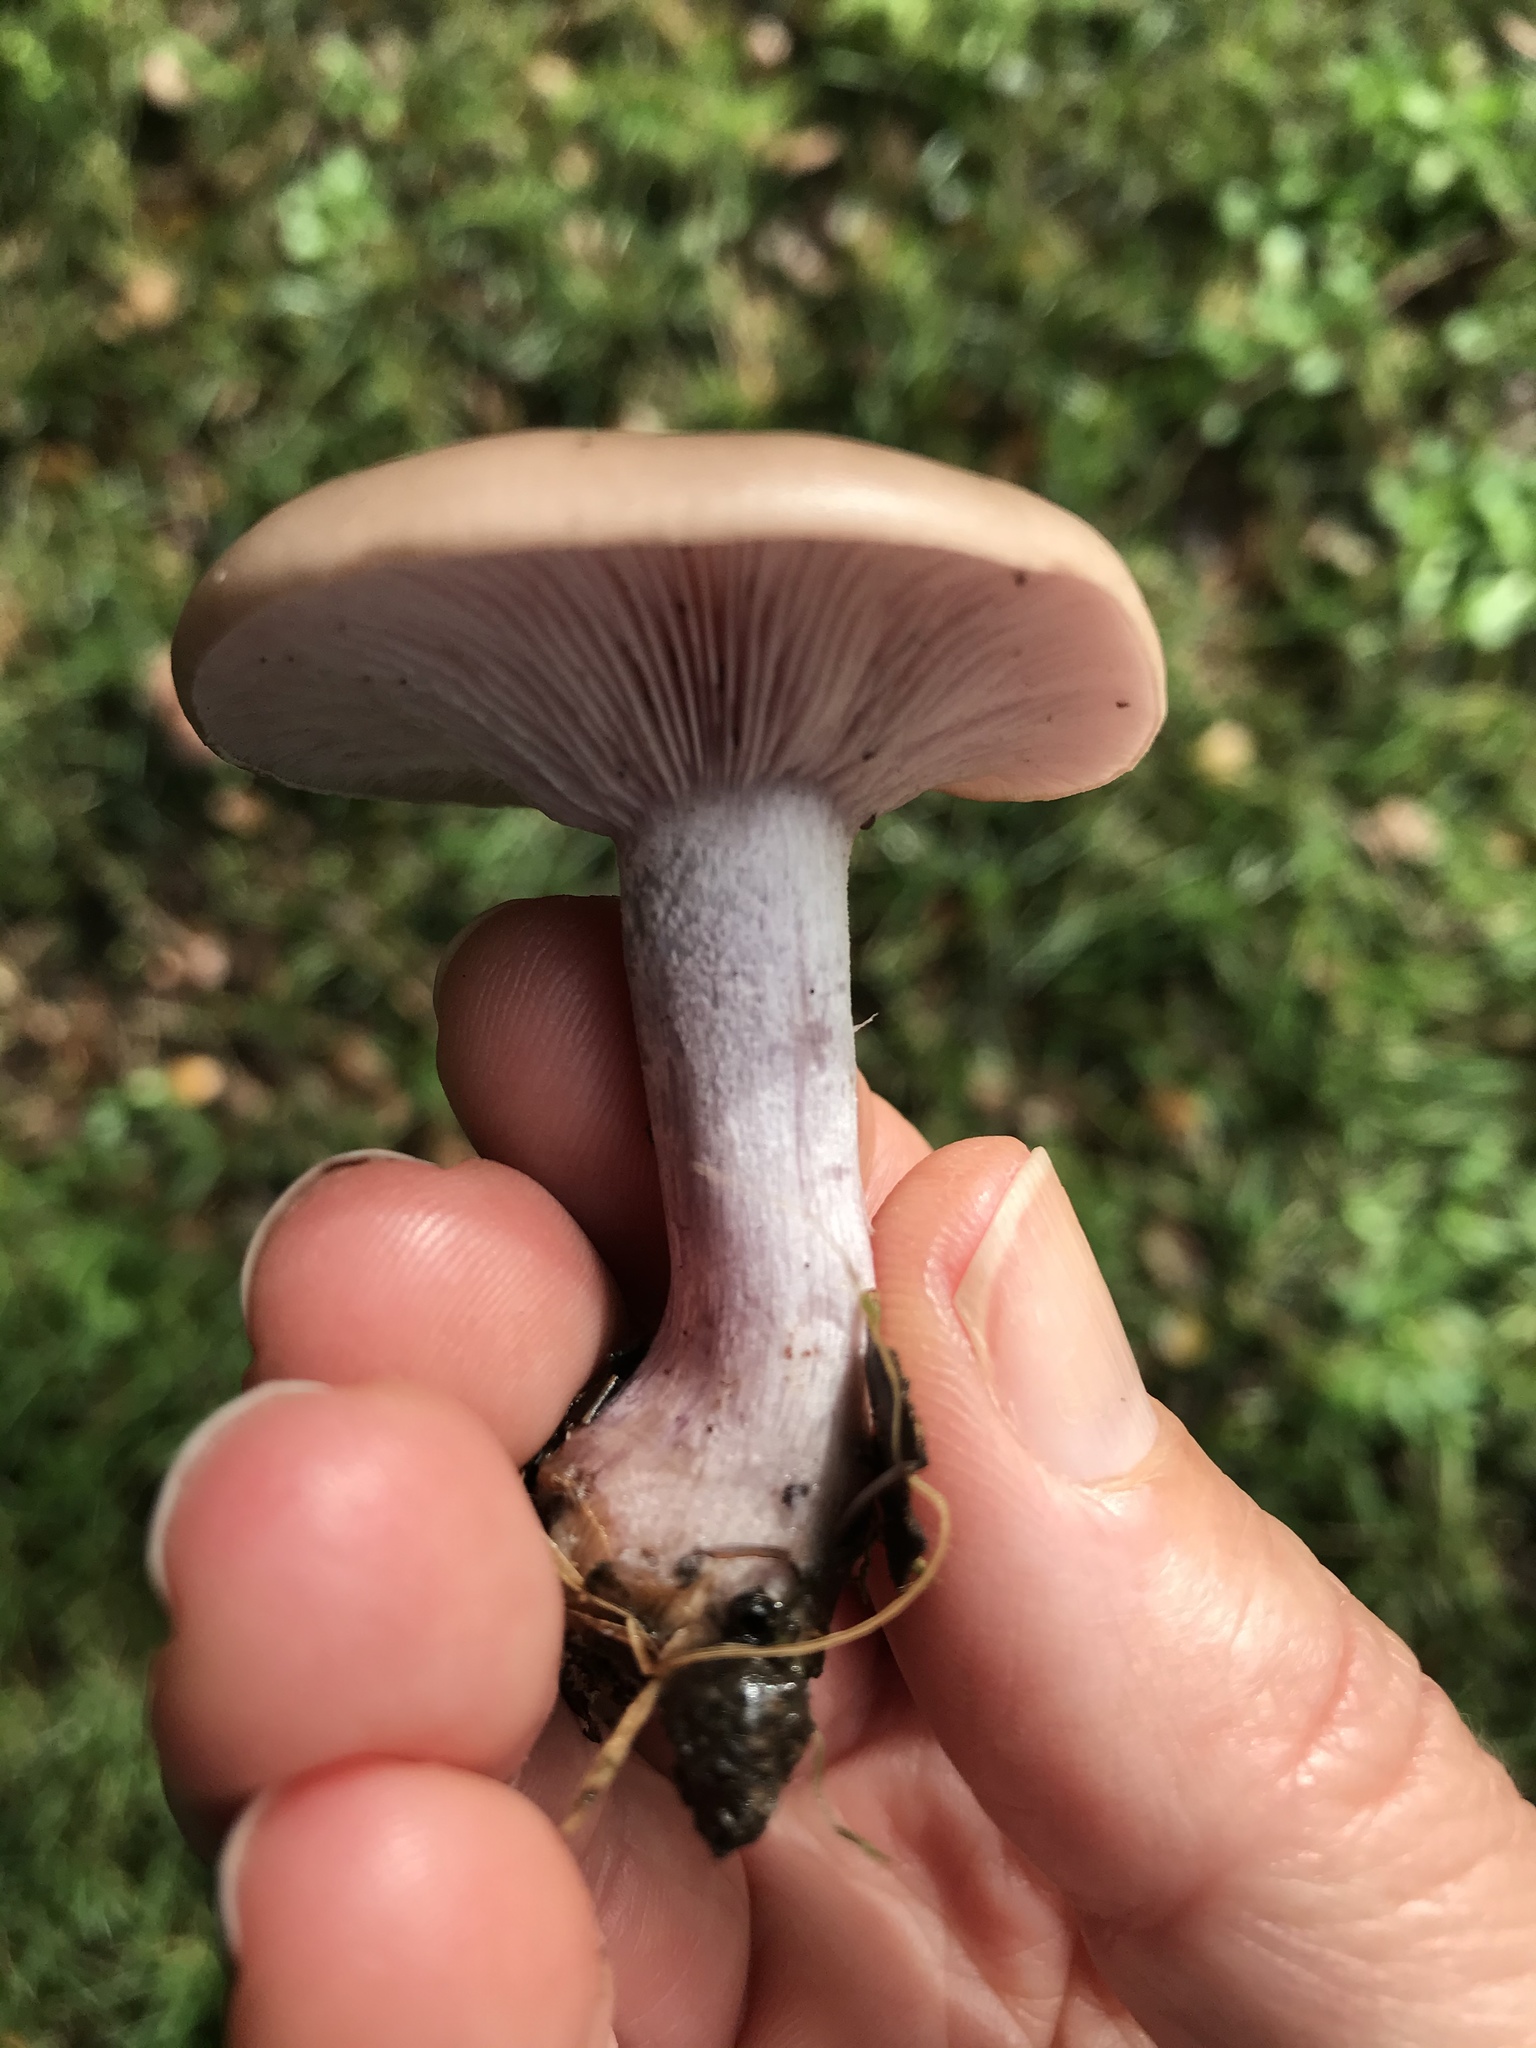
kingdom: Fungi
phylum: Basidiomycota
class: Agaricomycetes
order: Agaricales
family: Tricholomataceae
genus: Collybia
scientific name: Collybia
